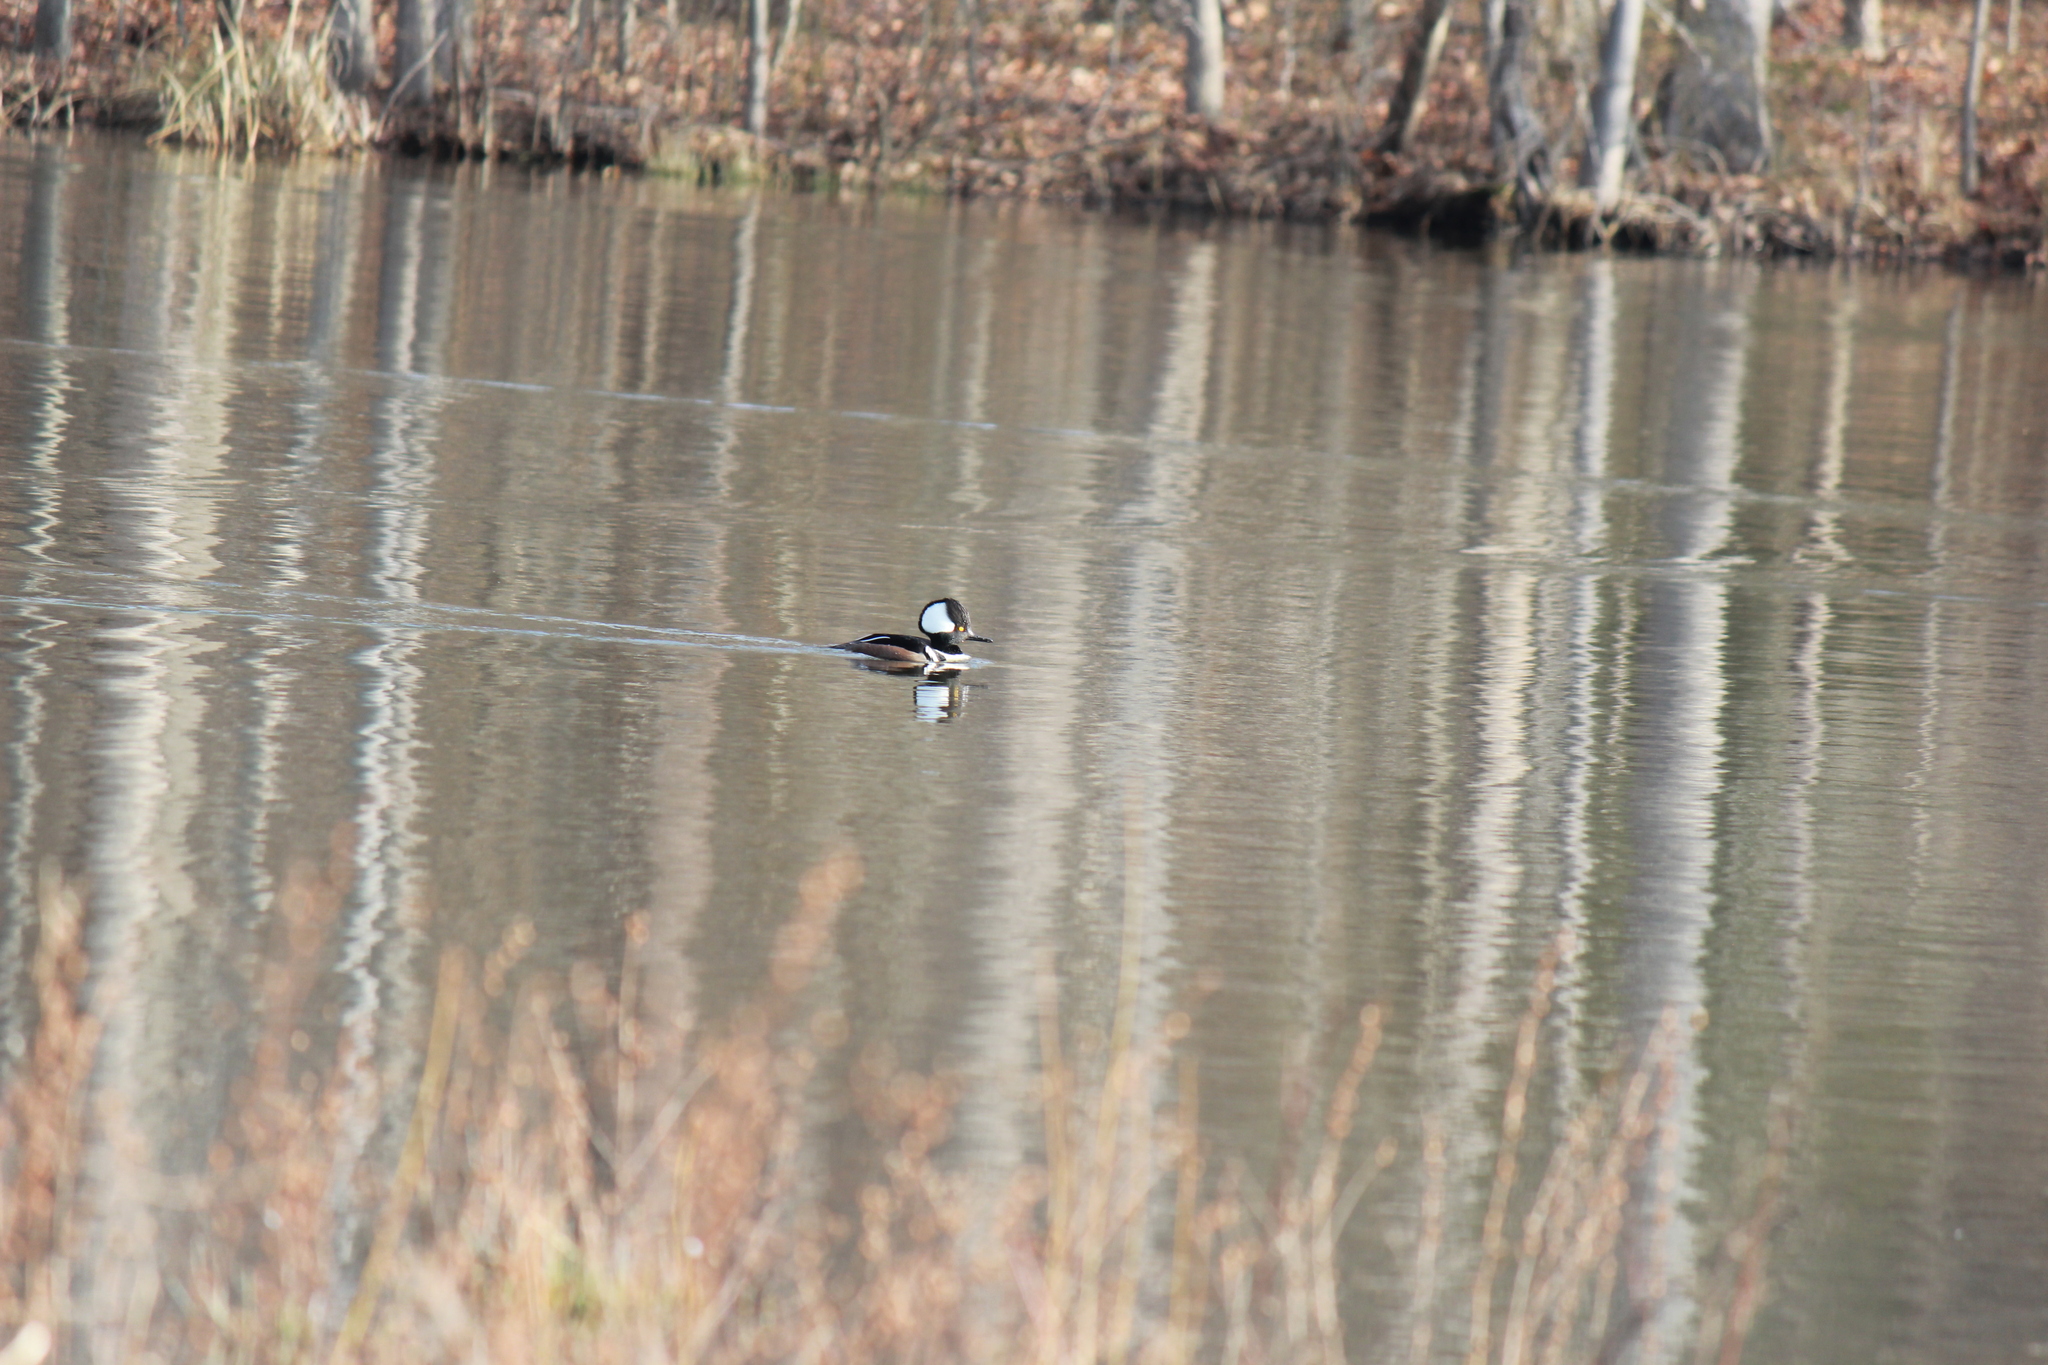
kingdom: Animalia
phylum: Chordata
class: Aves
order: Anseriformes
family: Anatidae
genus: Lophodytes
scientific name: Lophodytes cucullatus
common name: Hooded merganser
